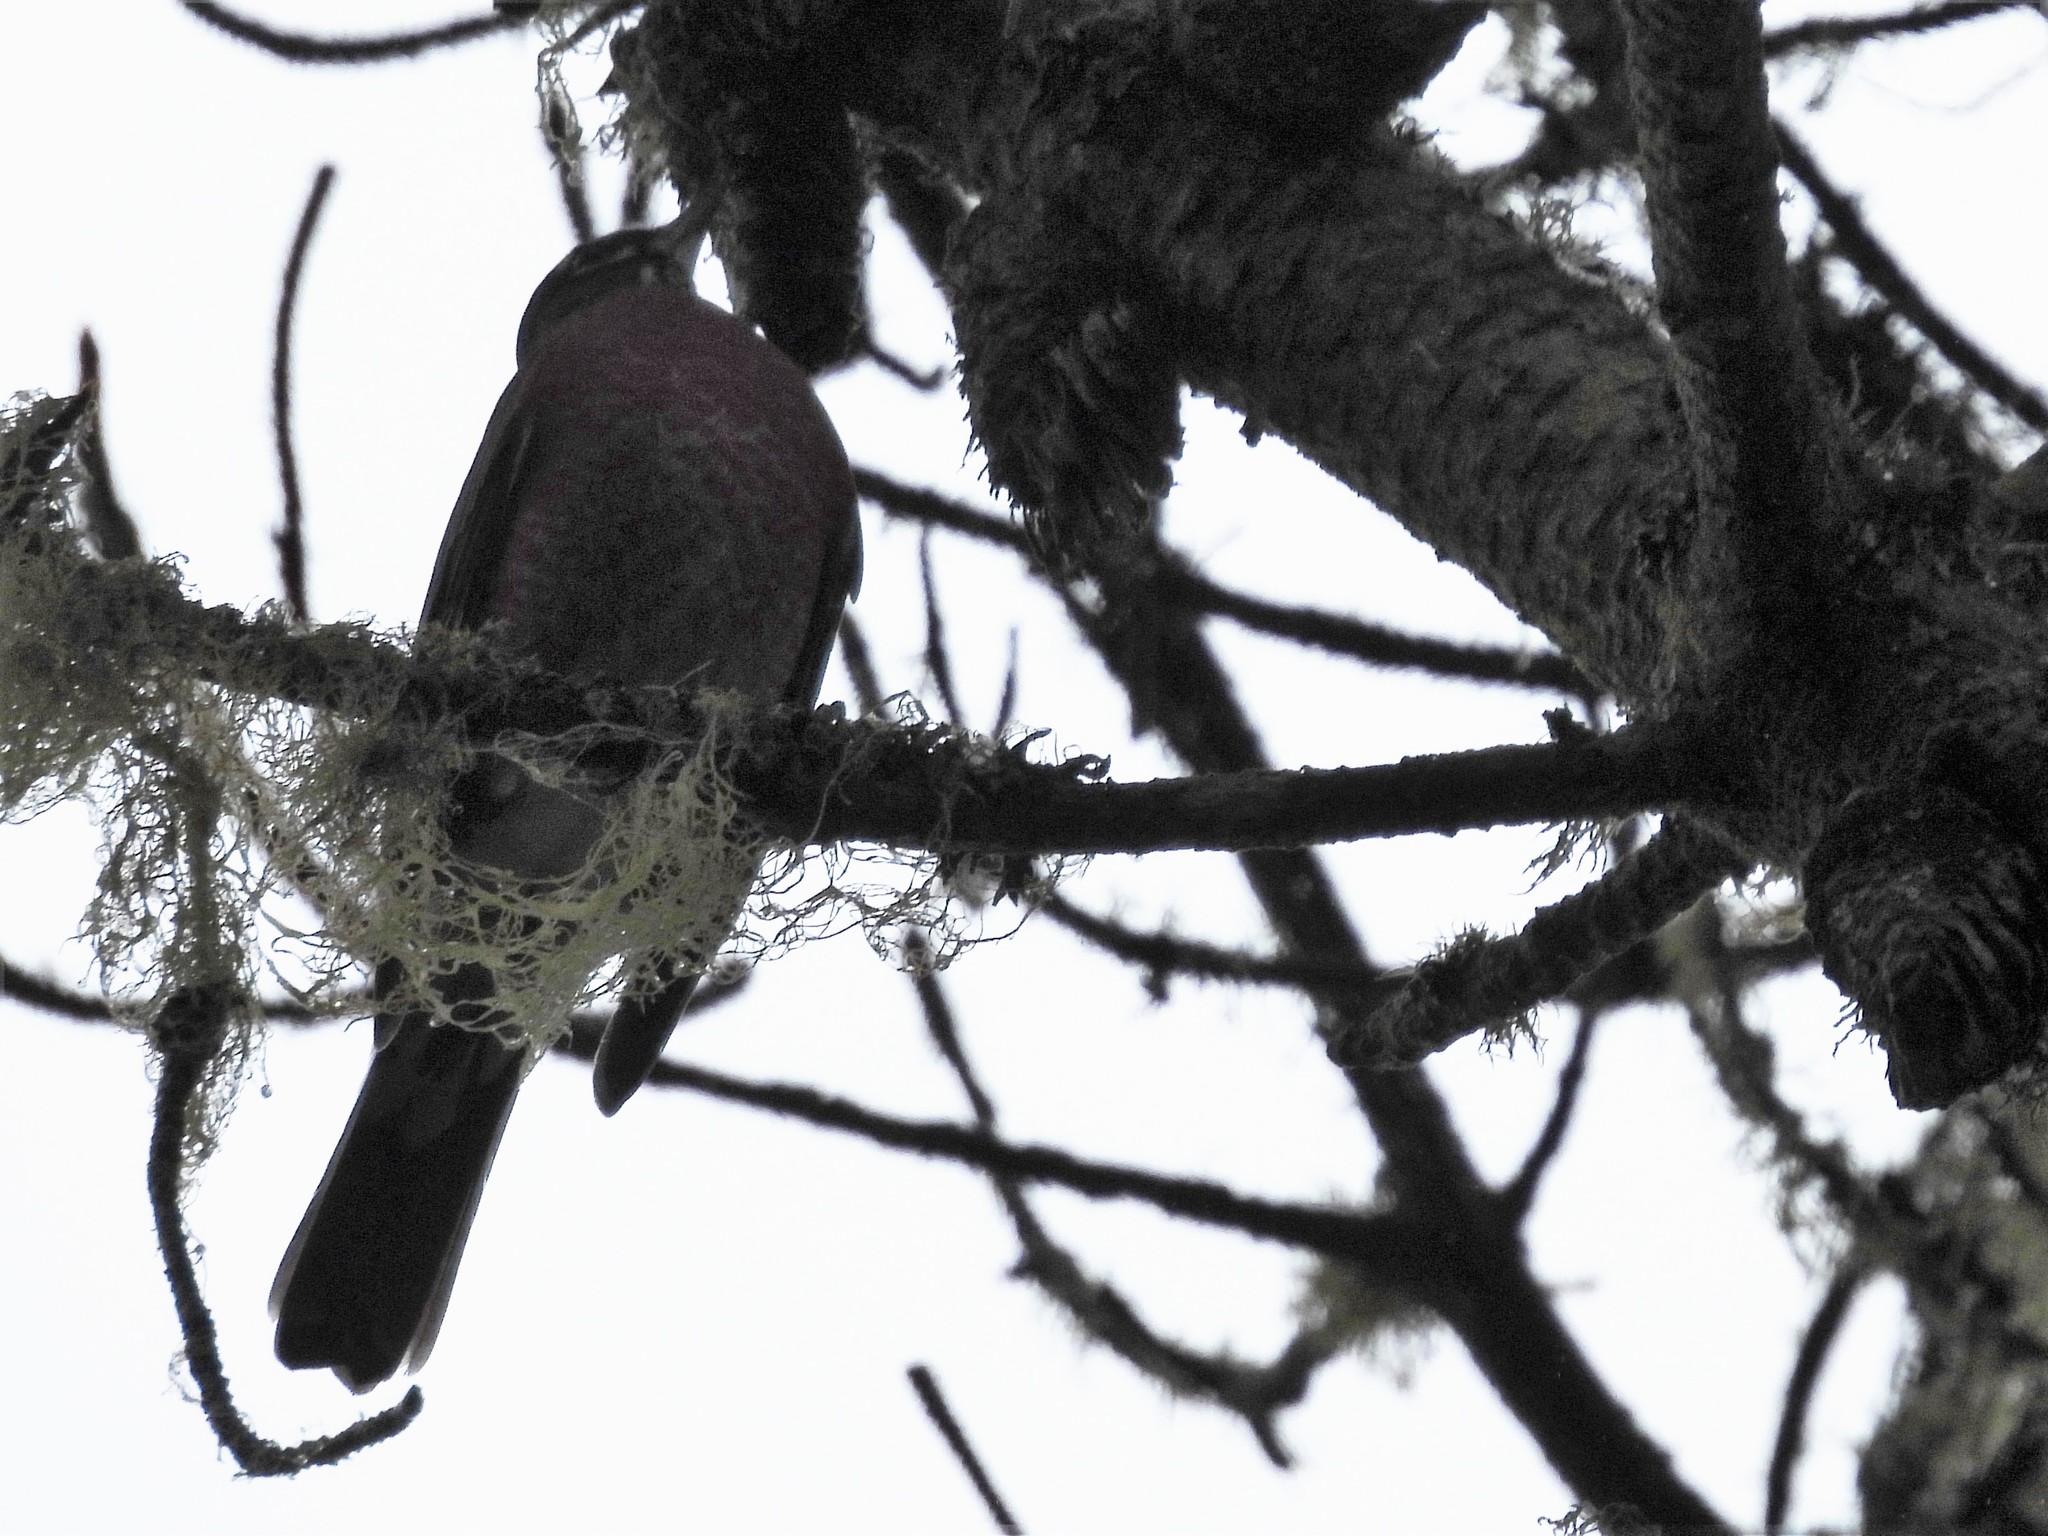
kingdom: Animalia
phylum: Chordata
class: Aves
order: Passeriformes
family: Turdidae
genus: Turdus
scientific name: Turdus migratorius
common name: American robin
